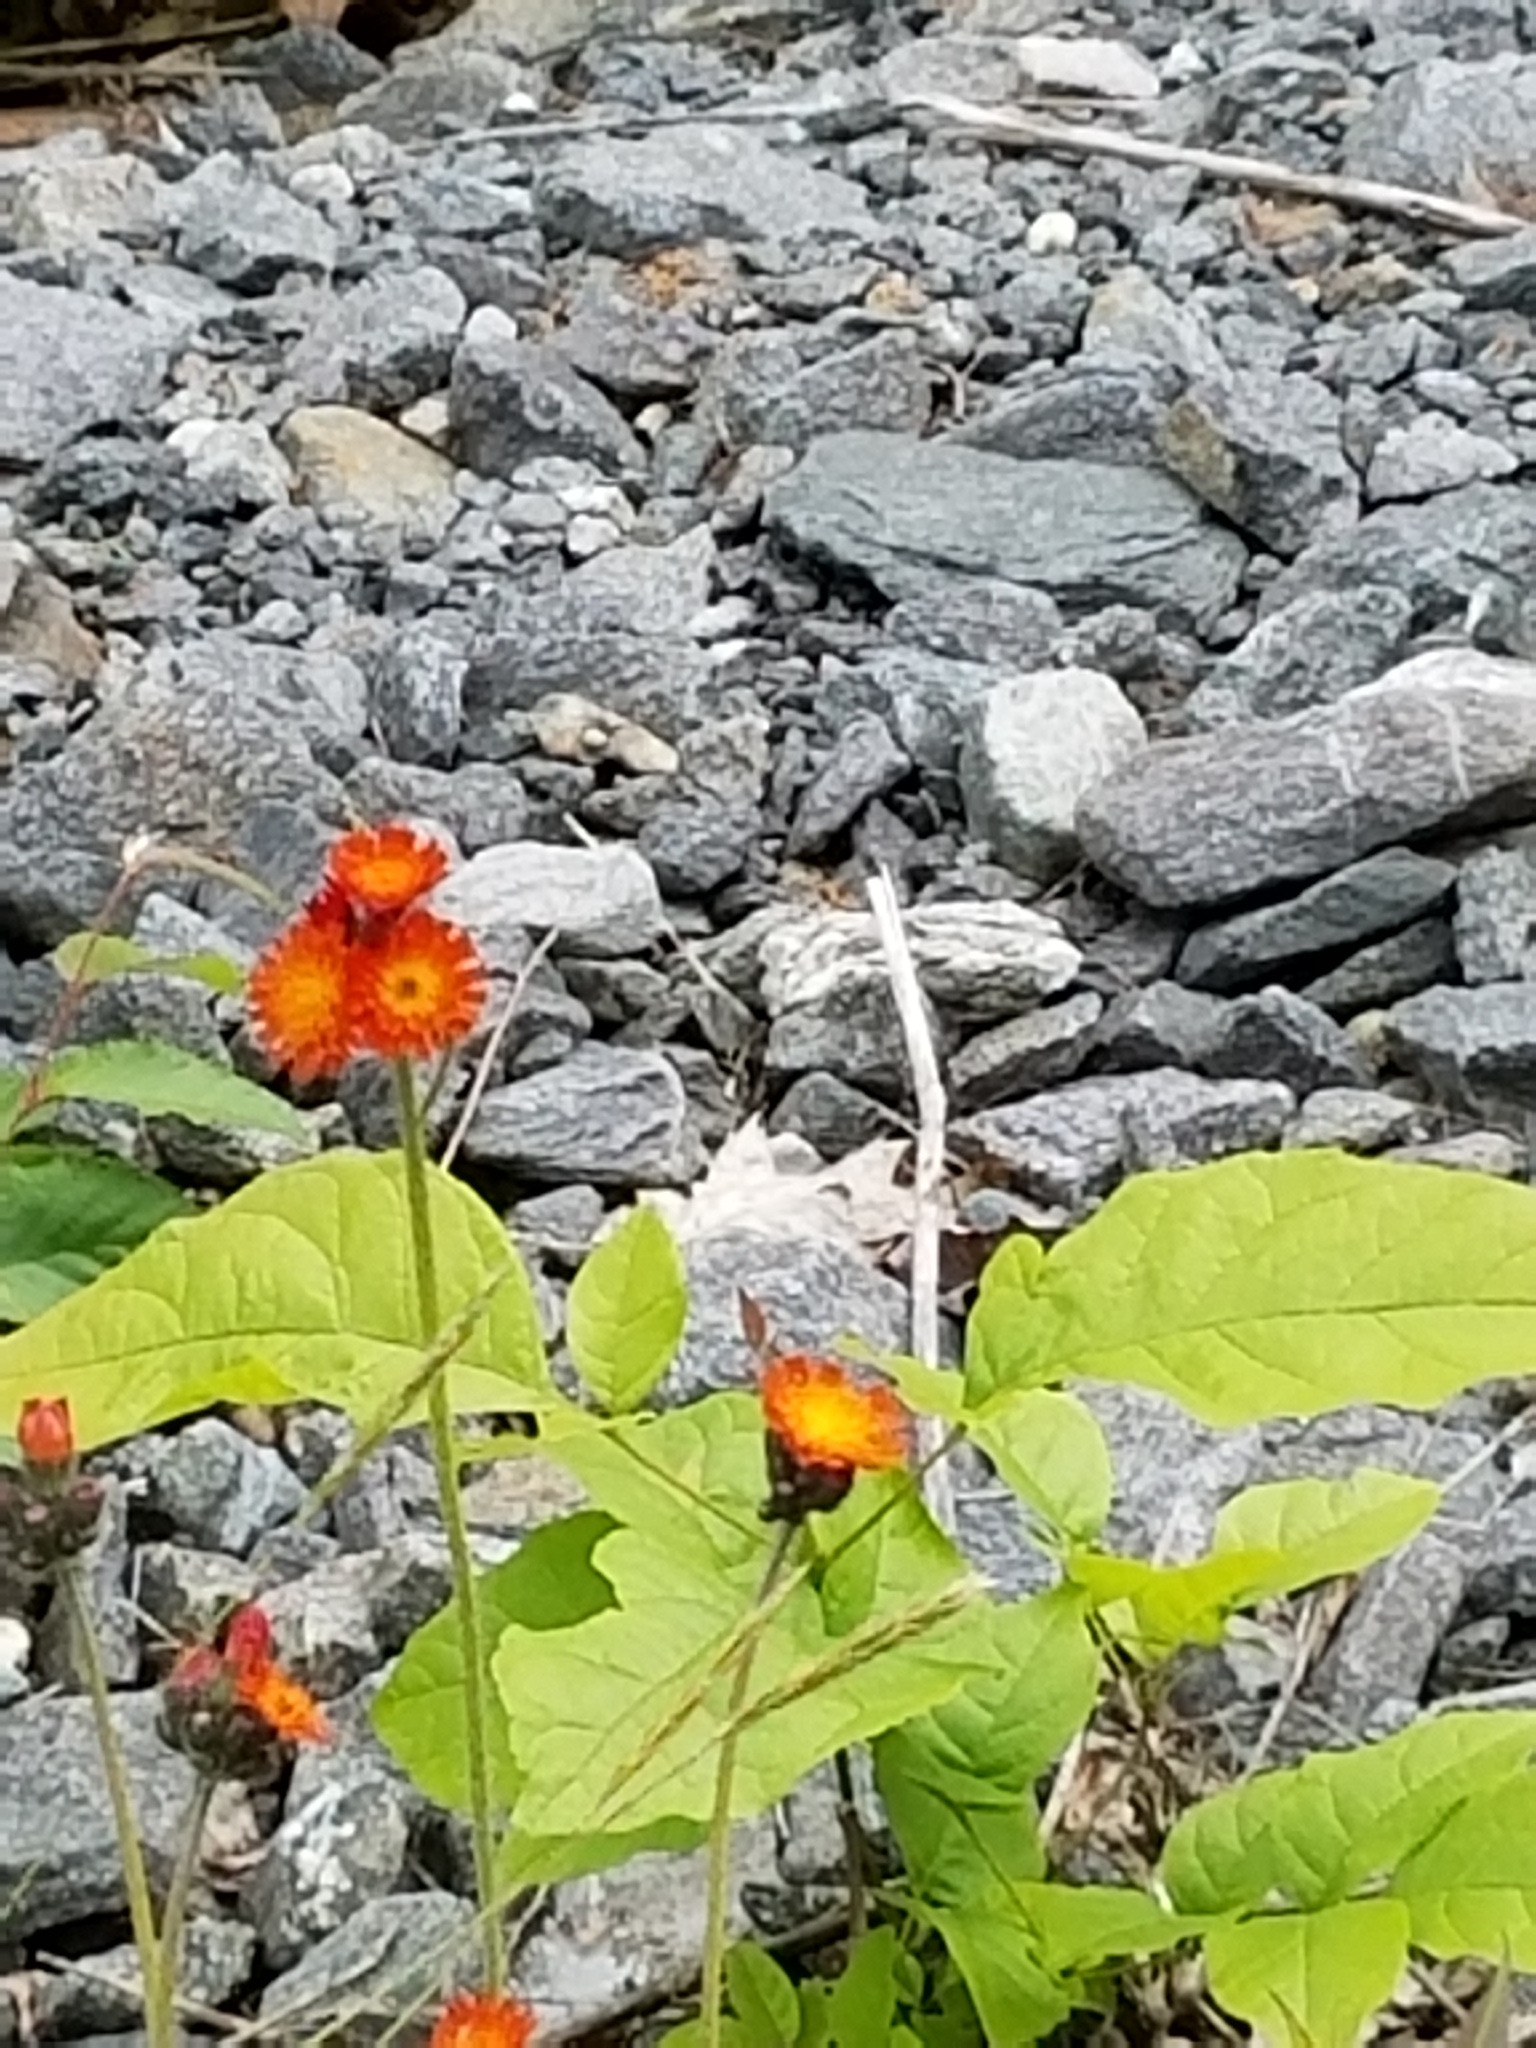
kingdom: Plantae
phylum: Tracheophyta
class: Magnoliopsida
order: Asterales
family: Asteraceae
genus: Pilosella
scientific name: Pilosella aurantiaca
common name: Fox-and-cubs
